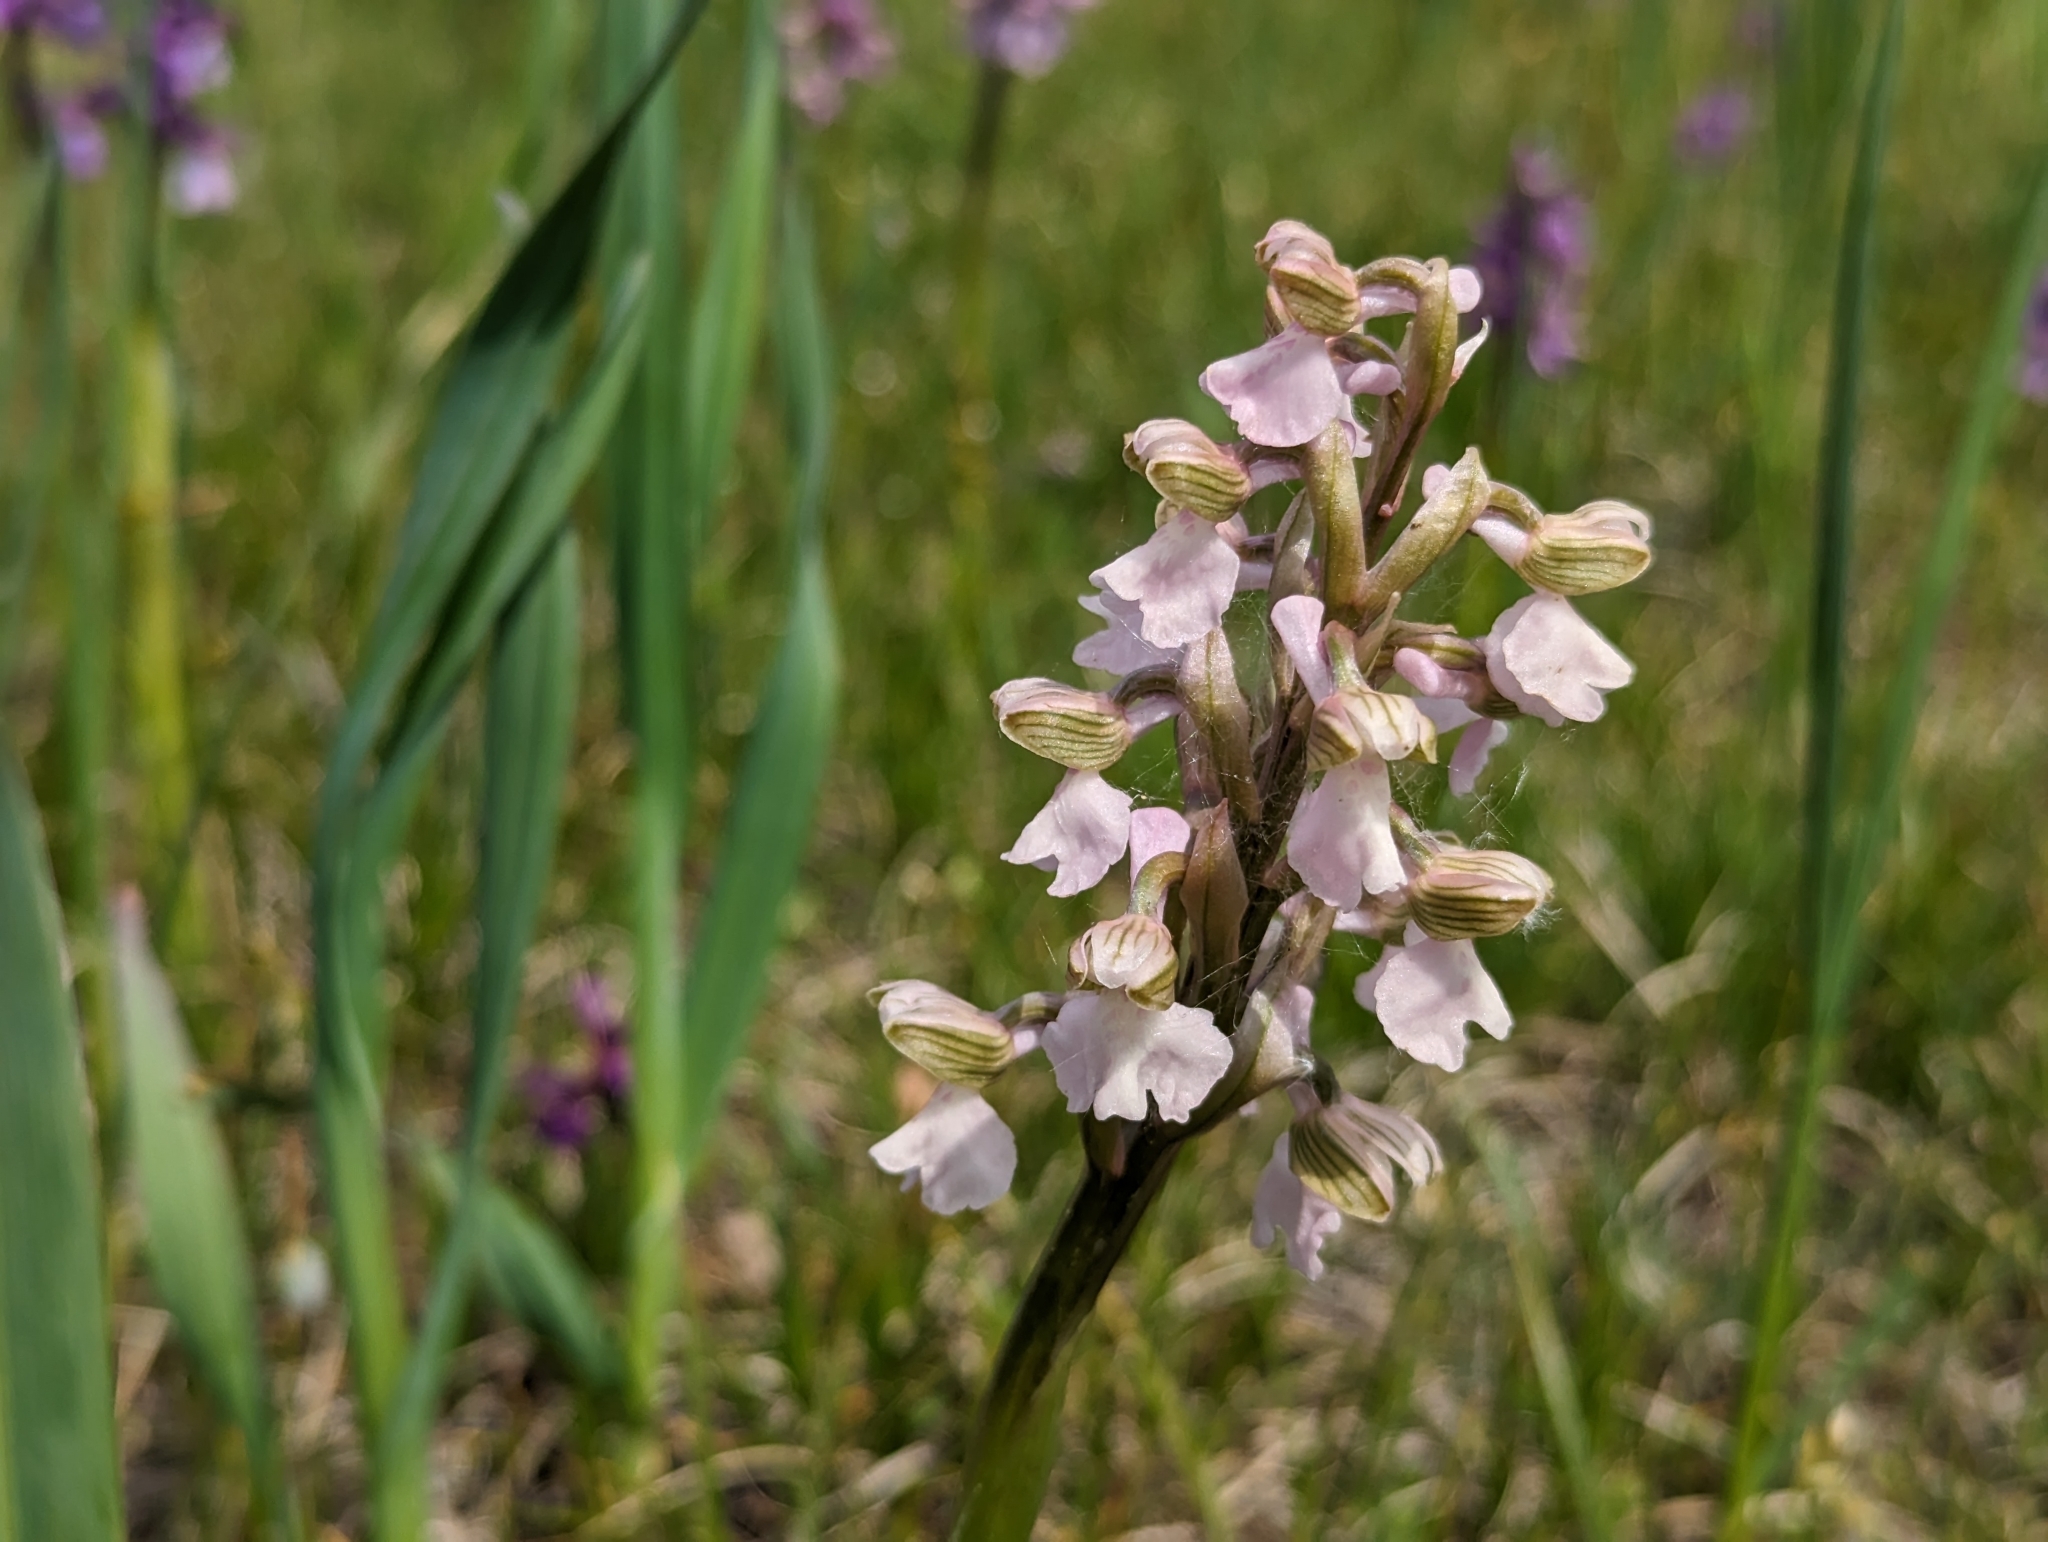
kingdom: Plantae
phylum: Tracheophyta
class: Liliopsida
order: Asparagales
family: Orchidaceae
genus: Anacamptis
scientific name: Anacamptis morio
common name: Green-winged orchid
